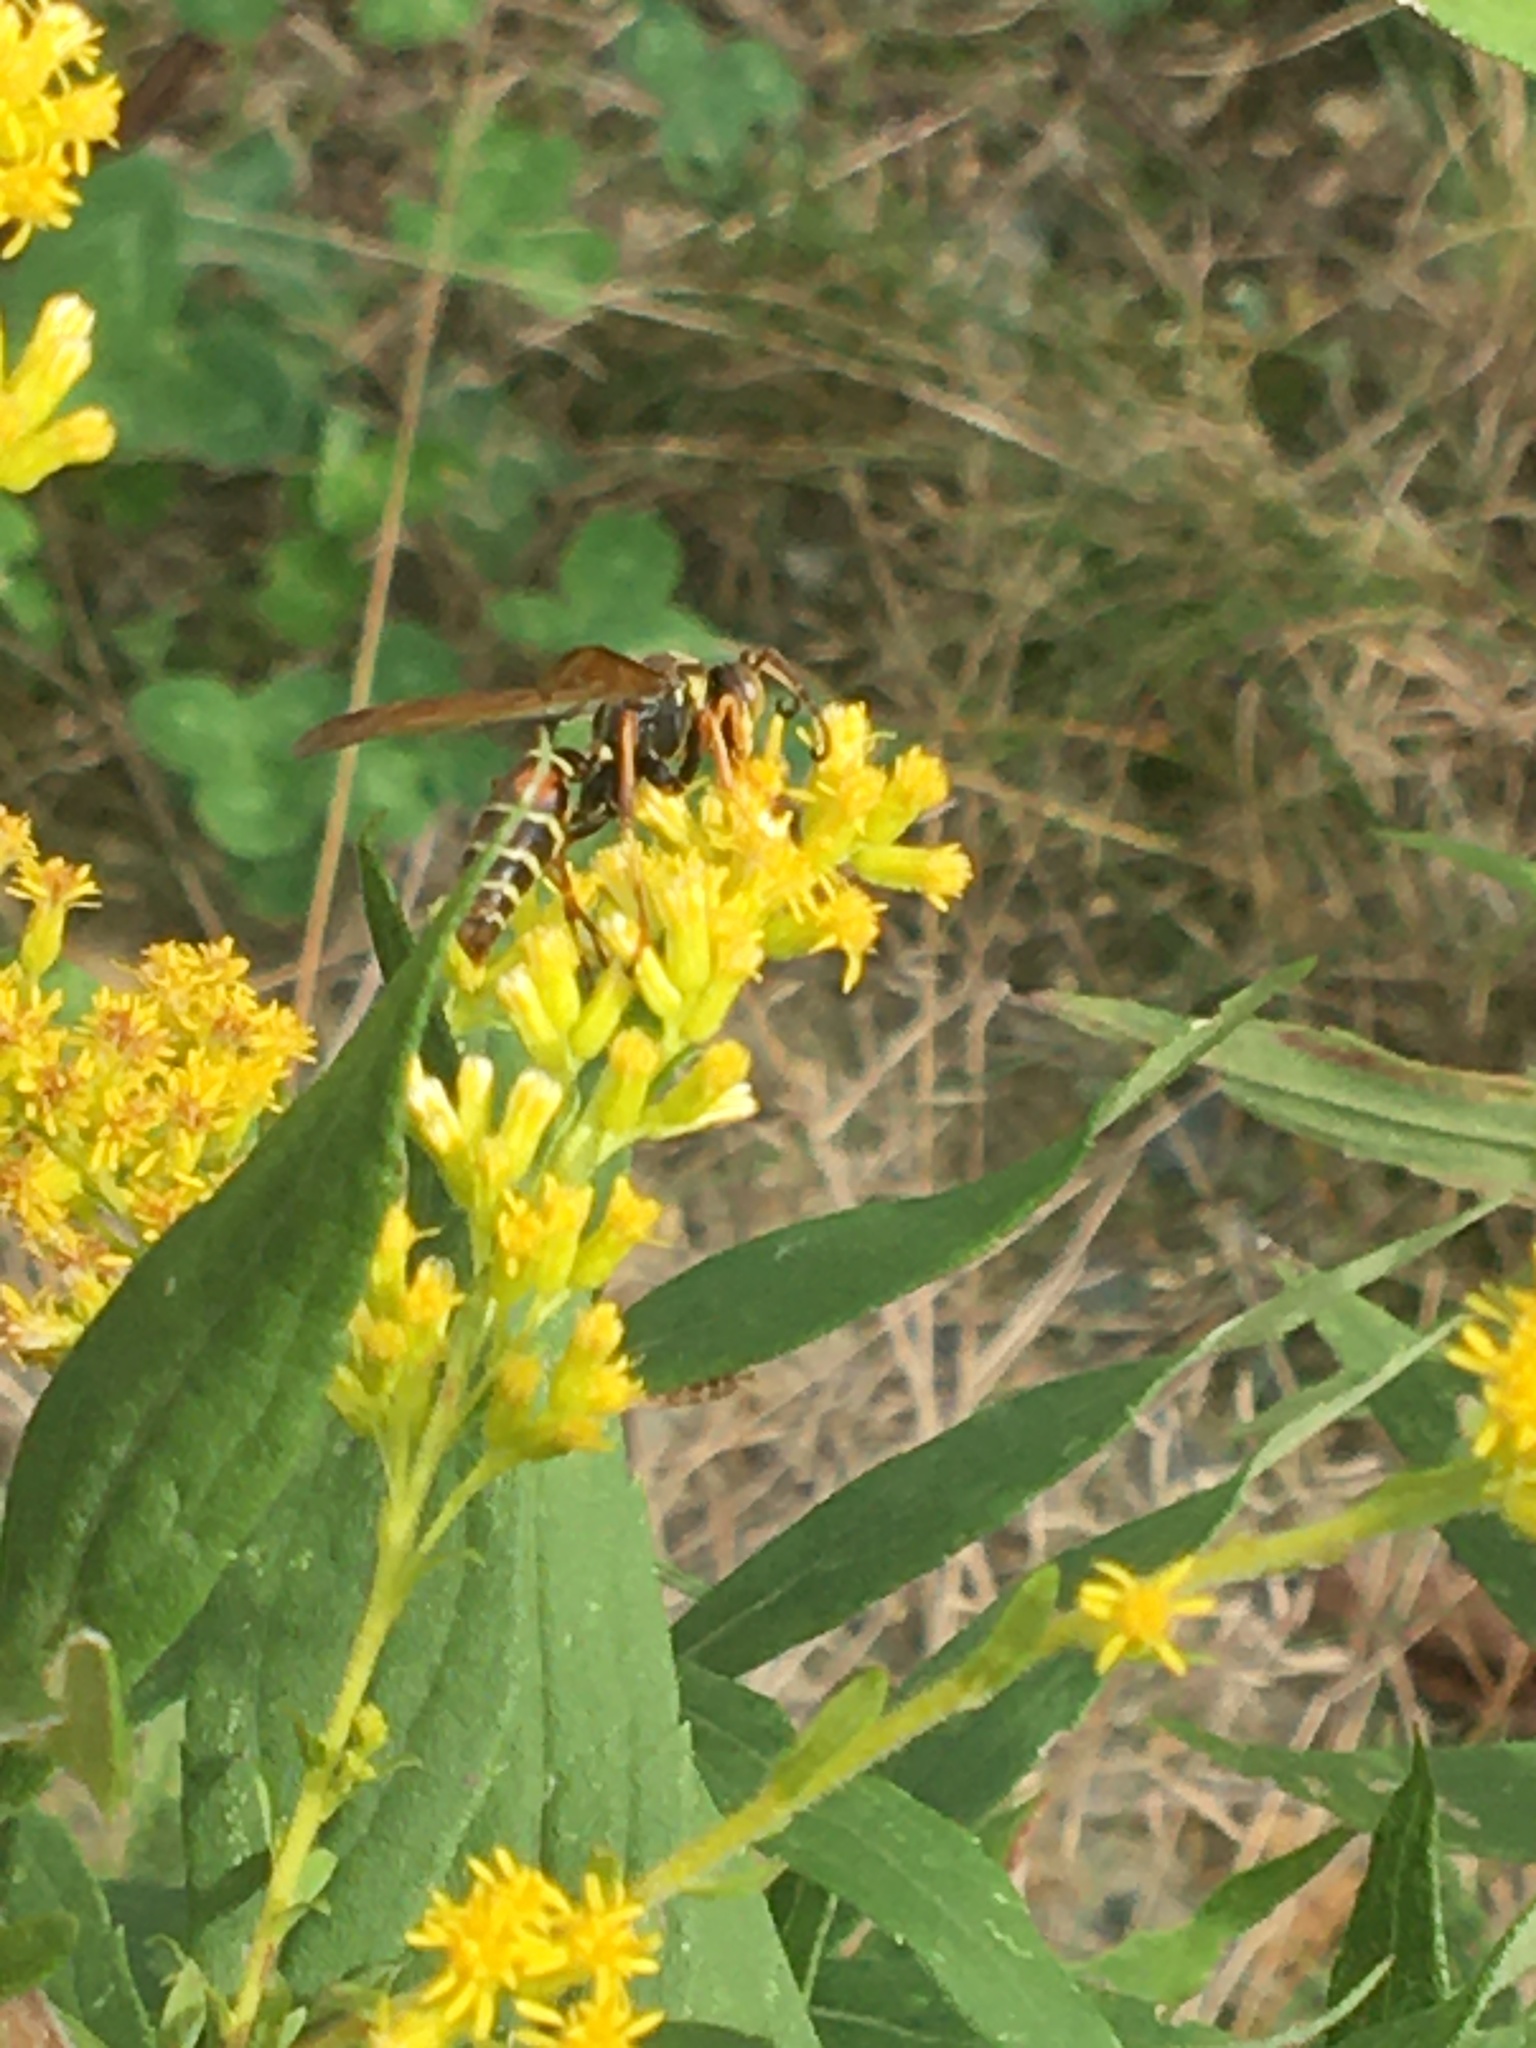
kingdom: Animalia
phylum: Arthropoda
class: Insecta
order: Hymenoptera
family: Eumenidae
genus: Polistes
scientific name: Polistes fuscatus
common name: Dark paper wasp
